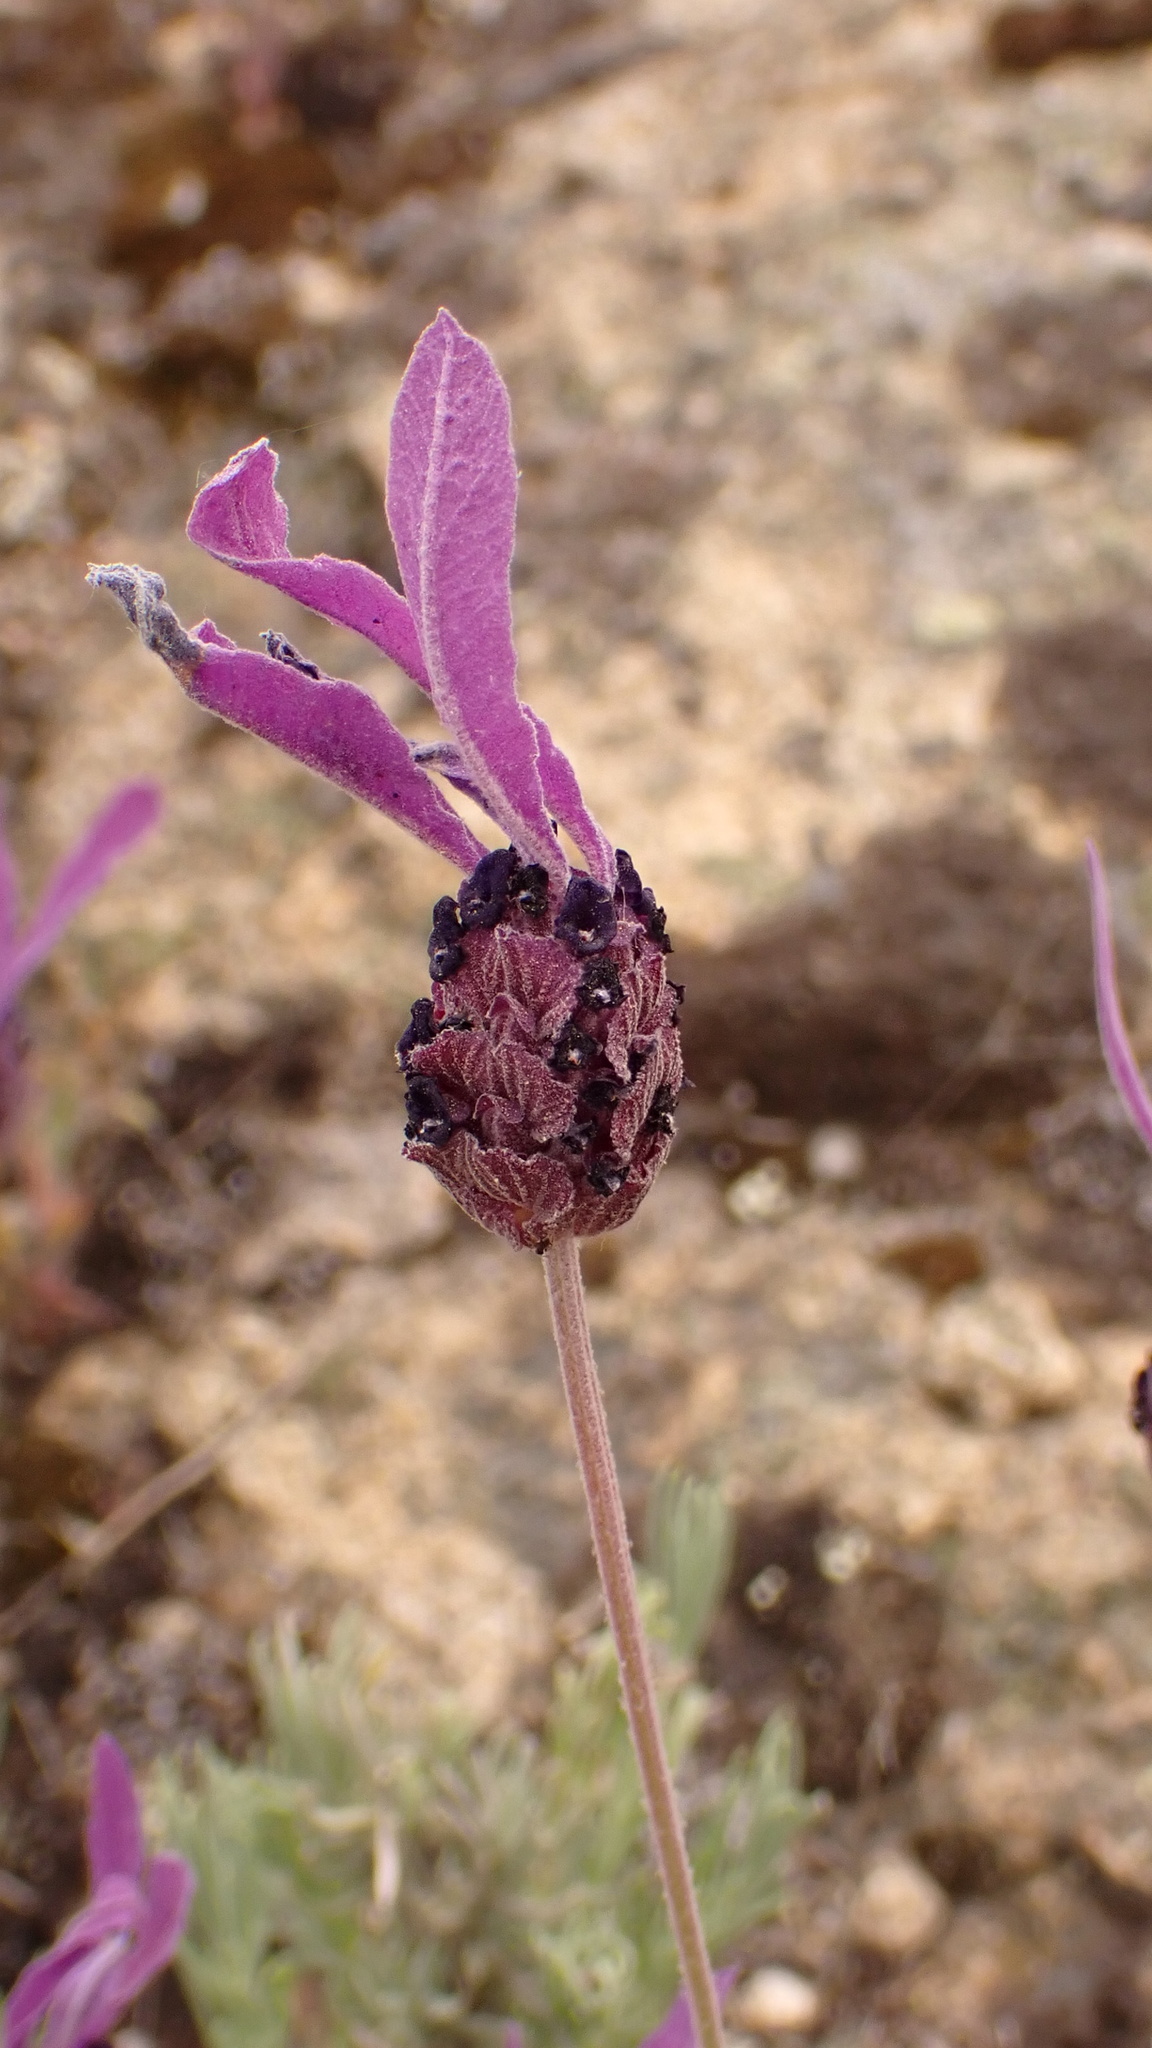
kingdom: Plantae
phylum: Tracheophyta
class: Magnoliopsida
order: Lamiales
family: Lamiaceae
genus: Lavandula
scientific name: Lavandula pedunculata
